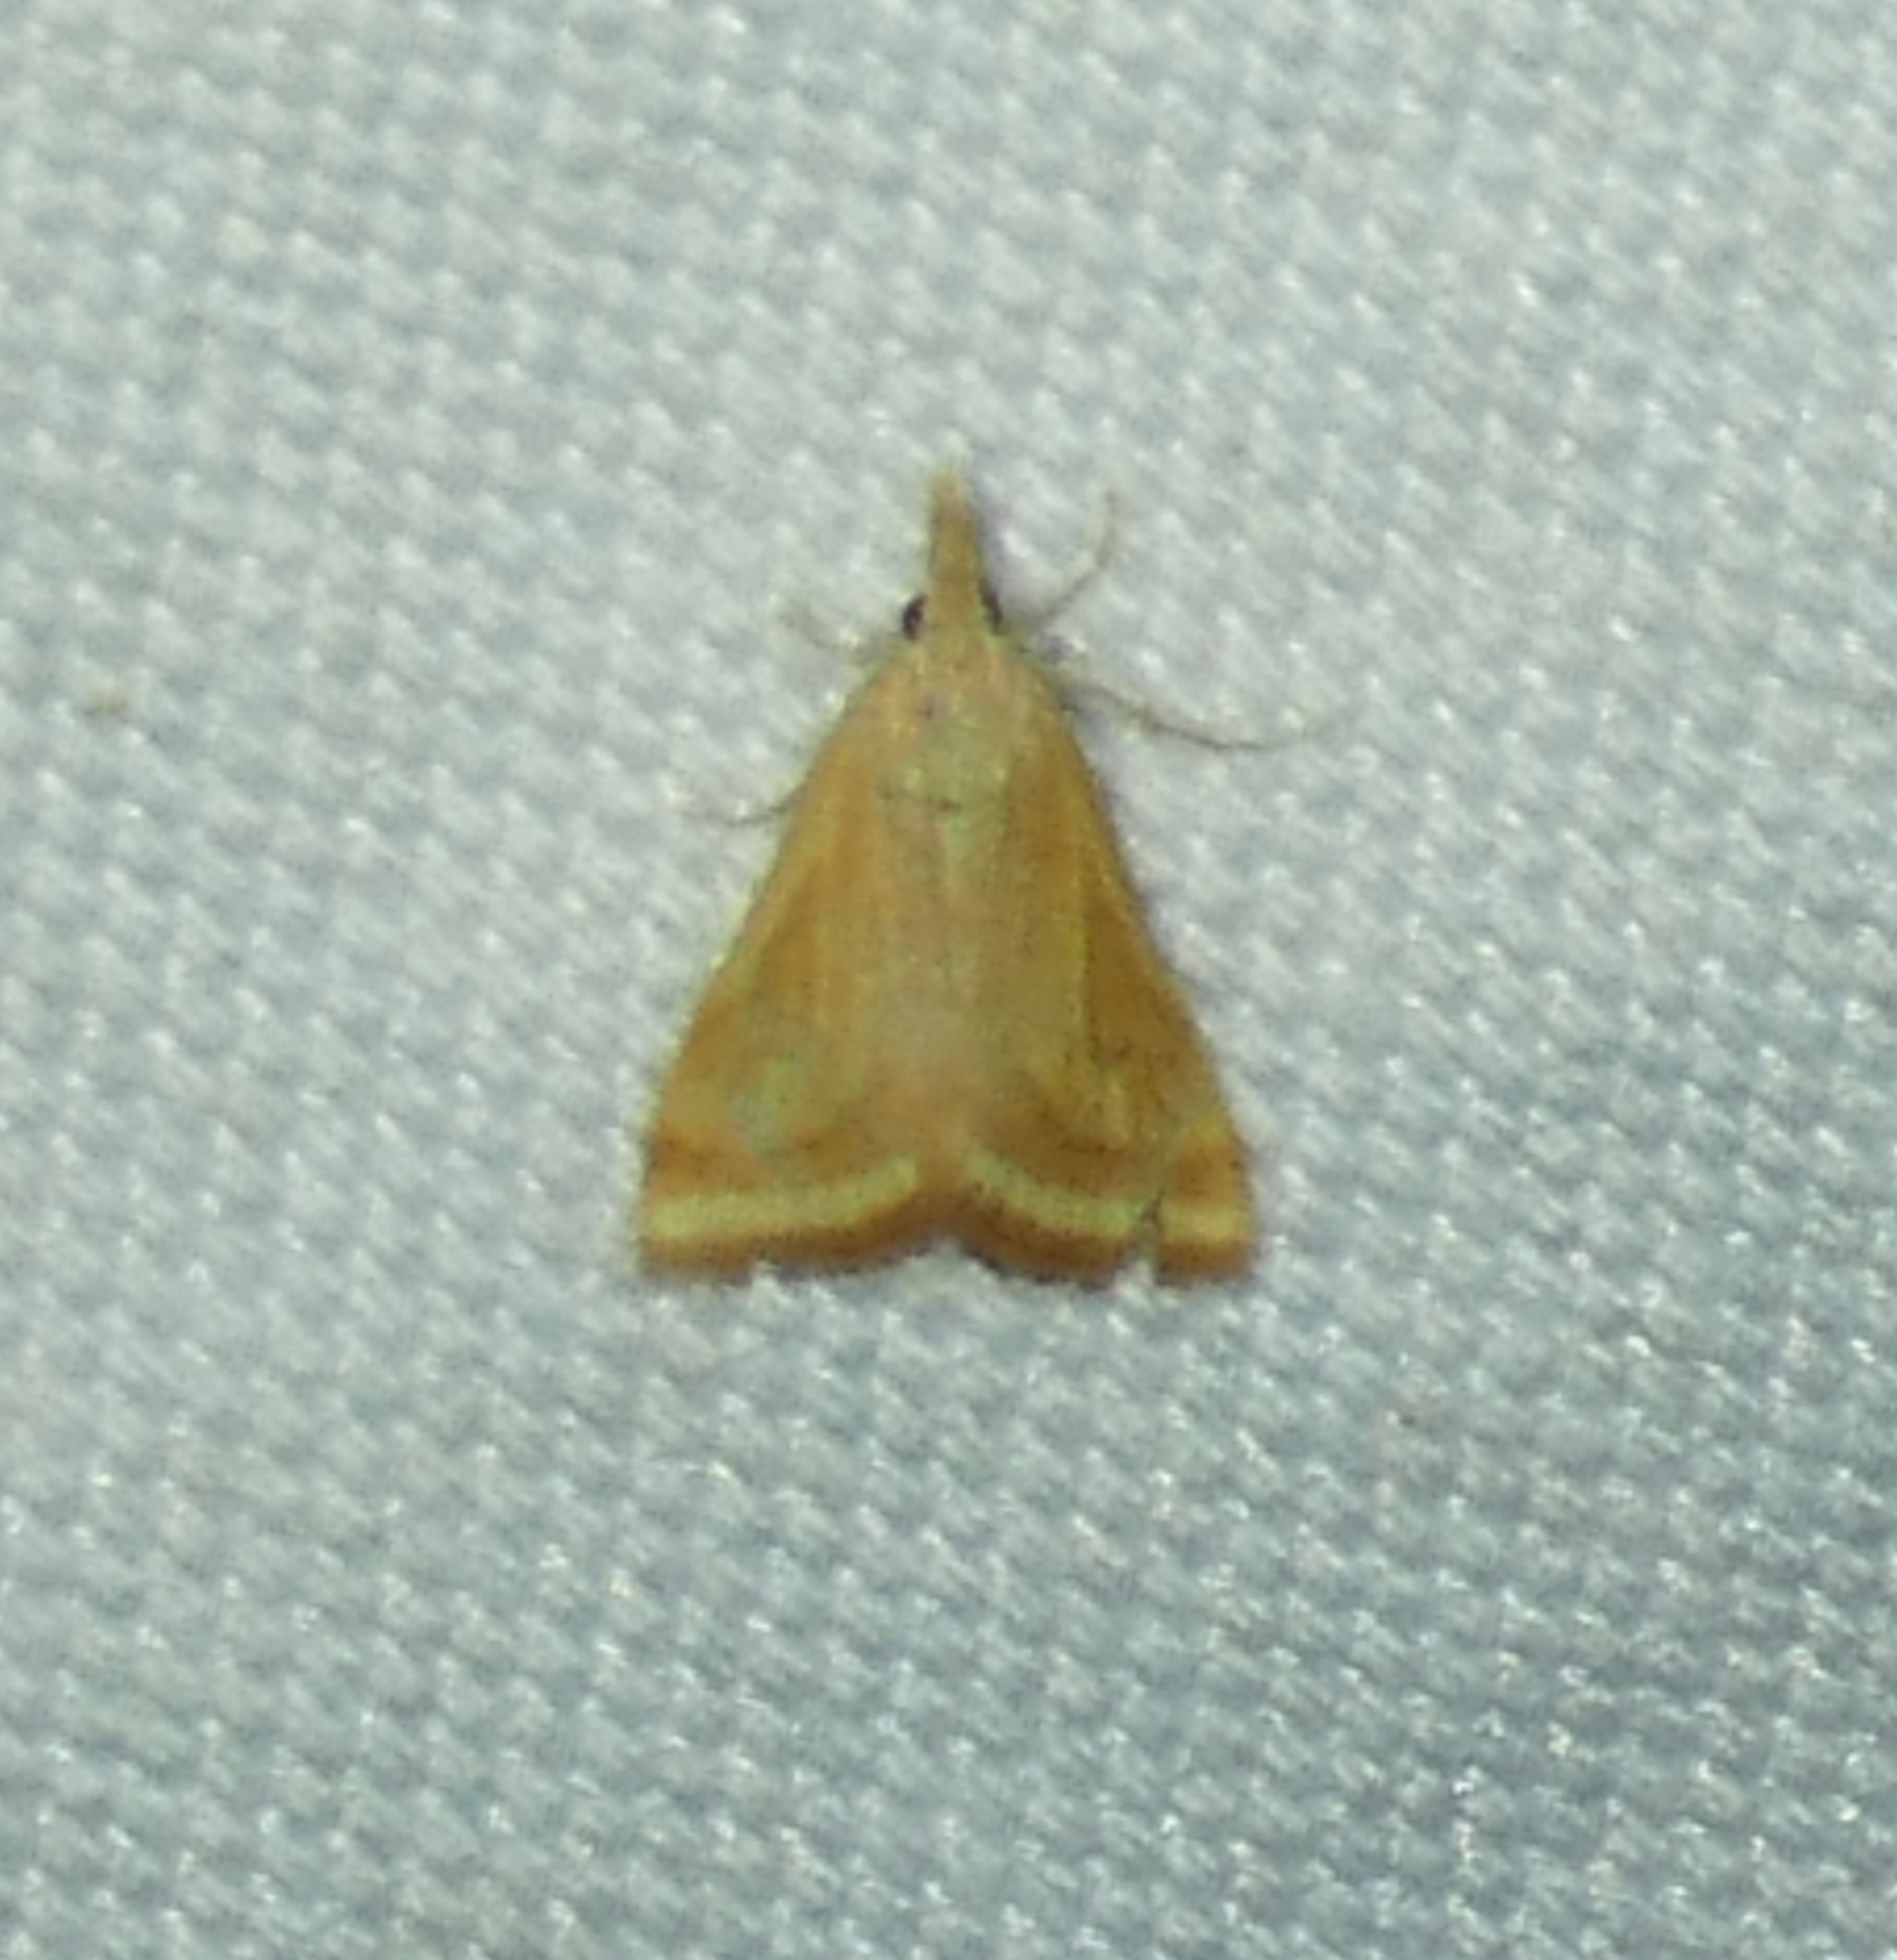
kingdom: Animalia
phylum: Arthropoda
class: Insecta
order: Lepidoptera
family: Crambidae
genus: Microtheoris
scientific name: Microtheoris ophionalis
